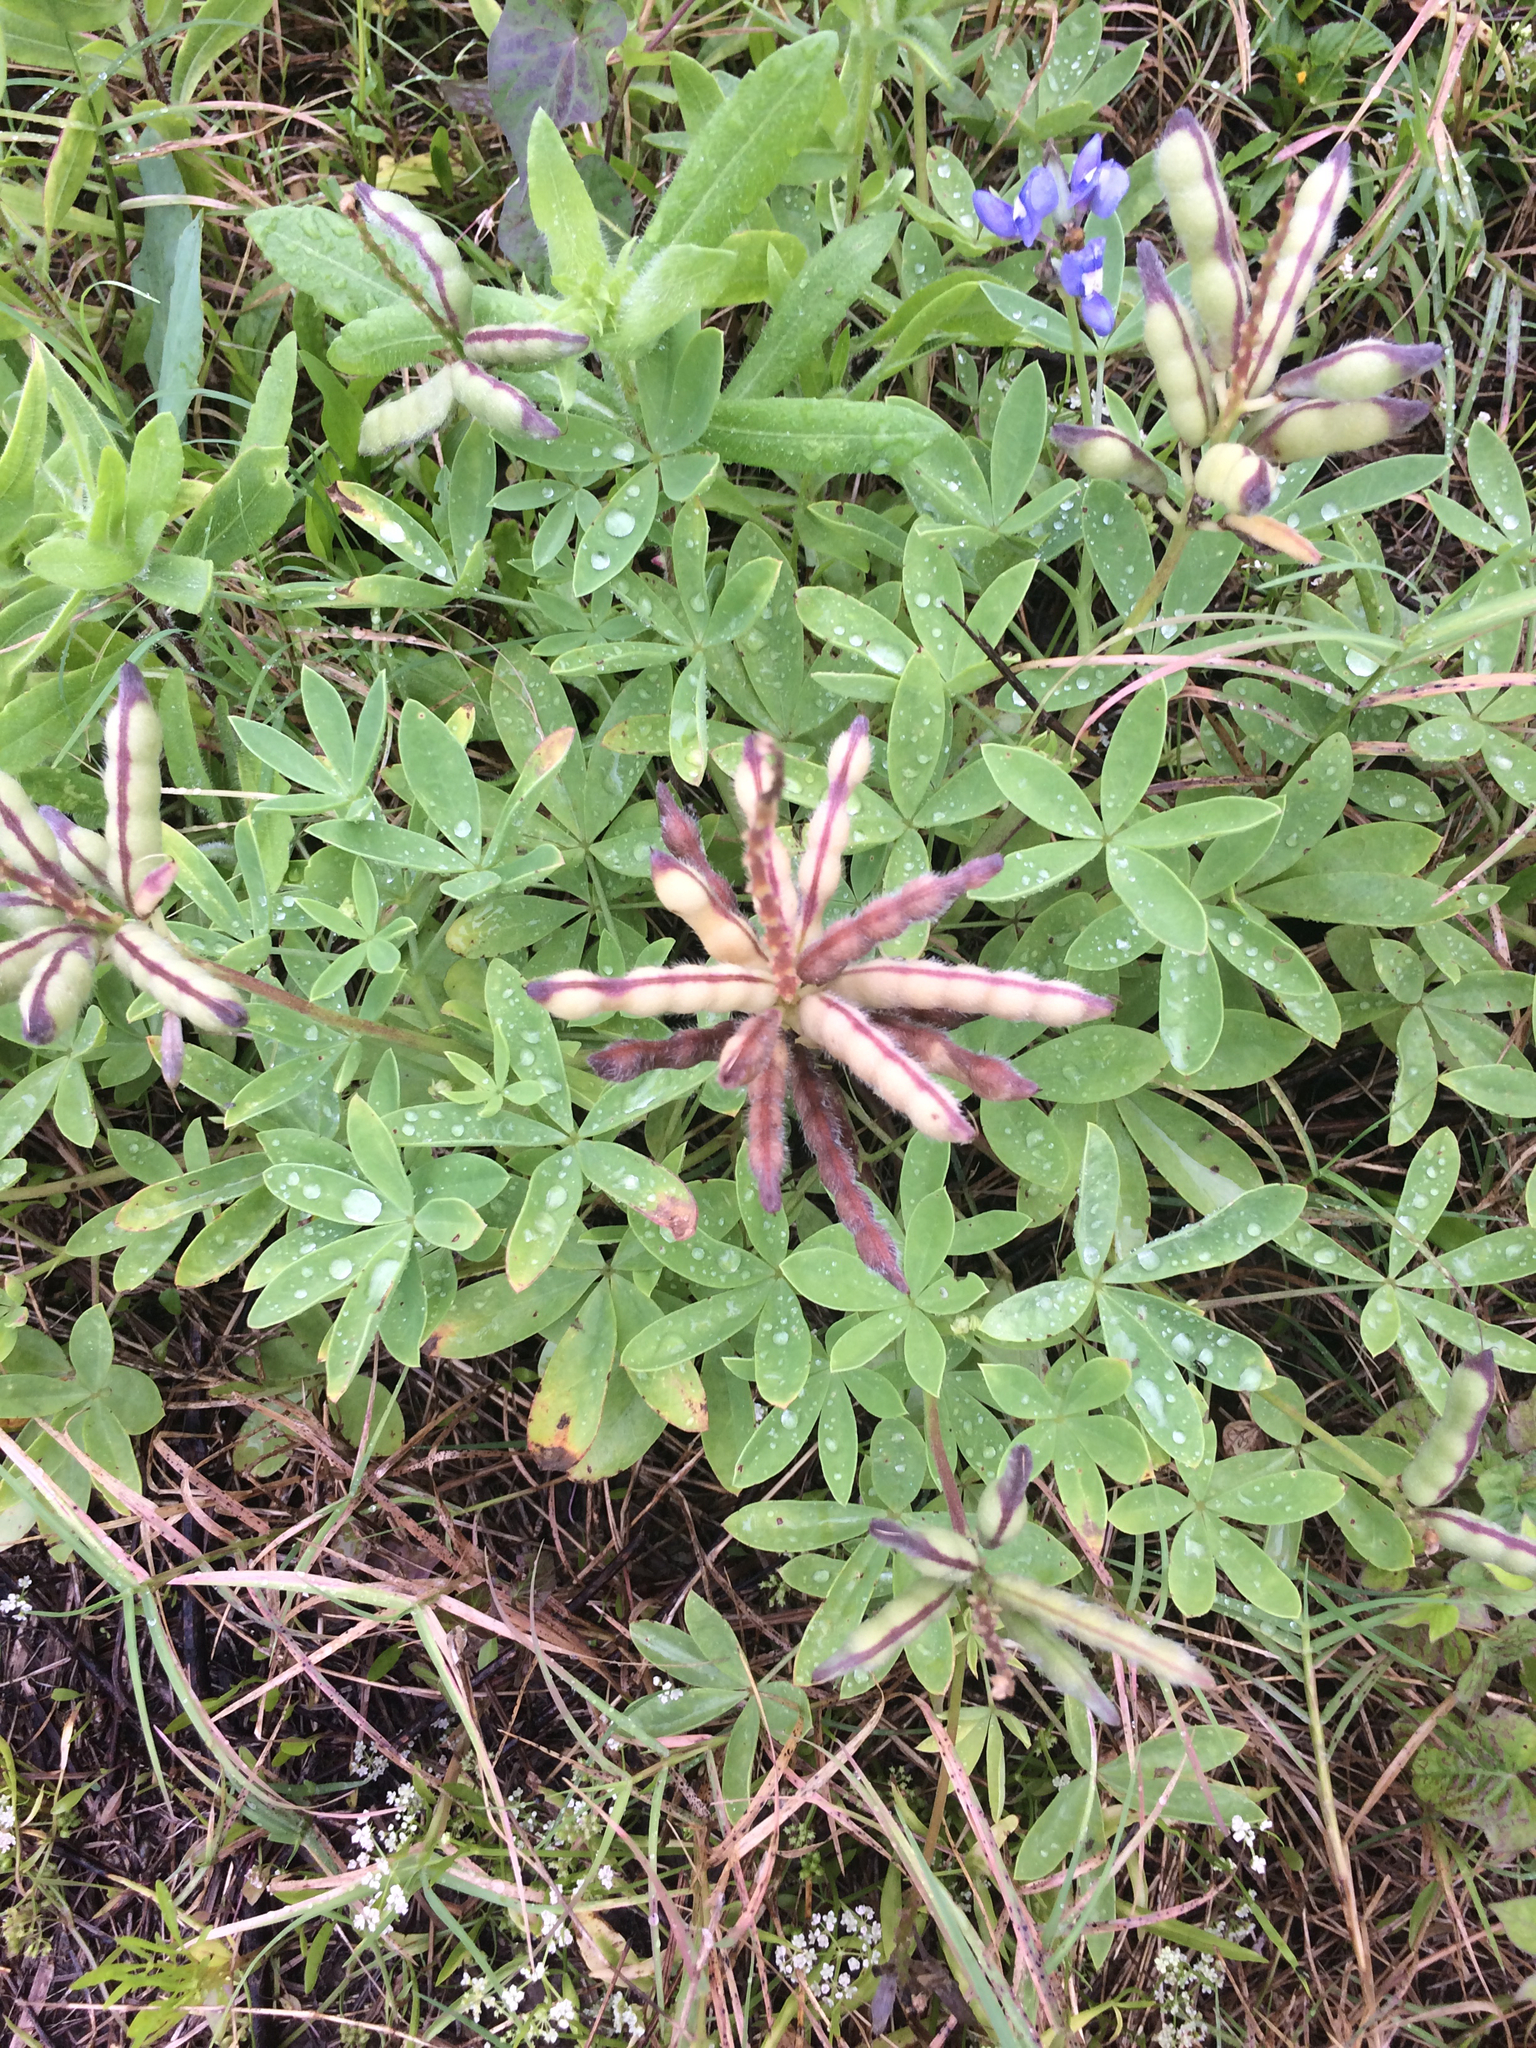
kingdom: Plantae
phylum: Tracheophyta
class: Magnoliopsida
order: Fabales
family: Fabaceae
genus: Lupinus
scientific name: Lupinus texensis
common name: Texas bluebonnet
